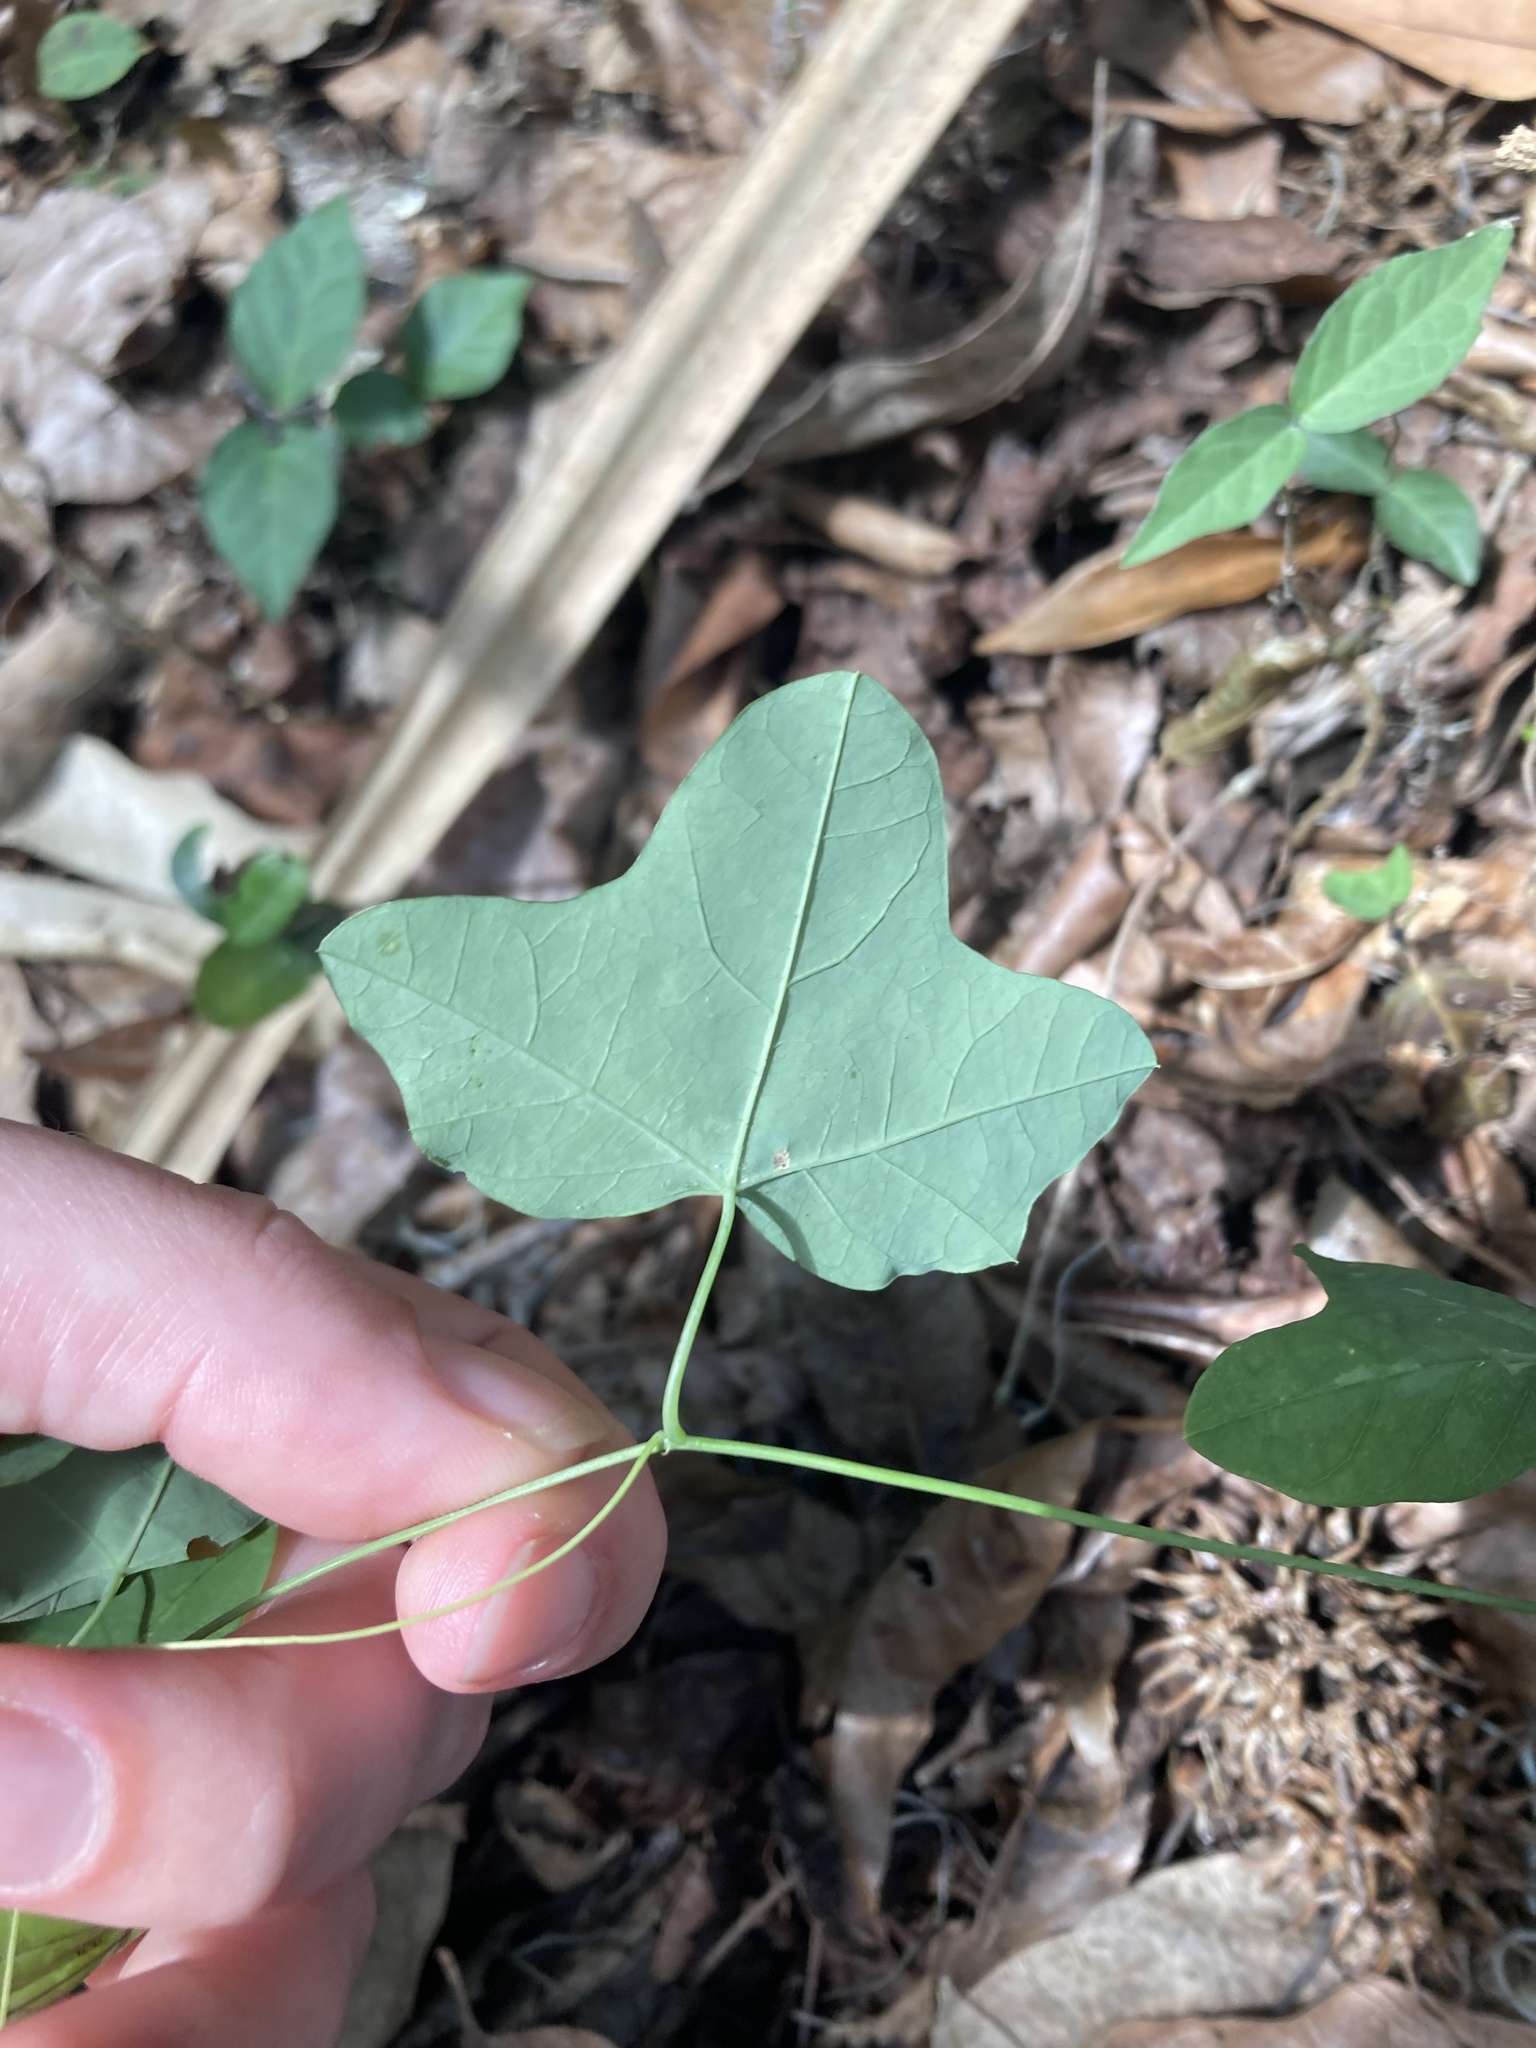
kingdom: Plantae
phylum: Tracheophyta
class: Magnoliopsida
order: Malpighiales
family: Passifloraceae
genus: Passiflora
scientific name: Passiflora lutea
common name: Yellow passionflower
